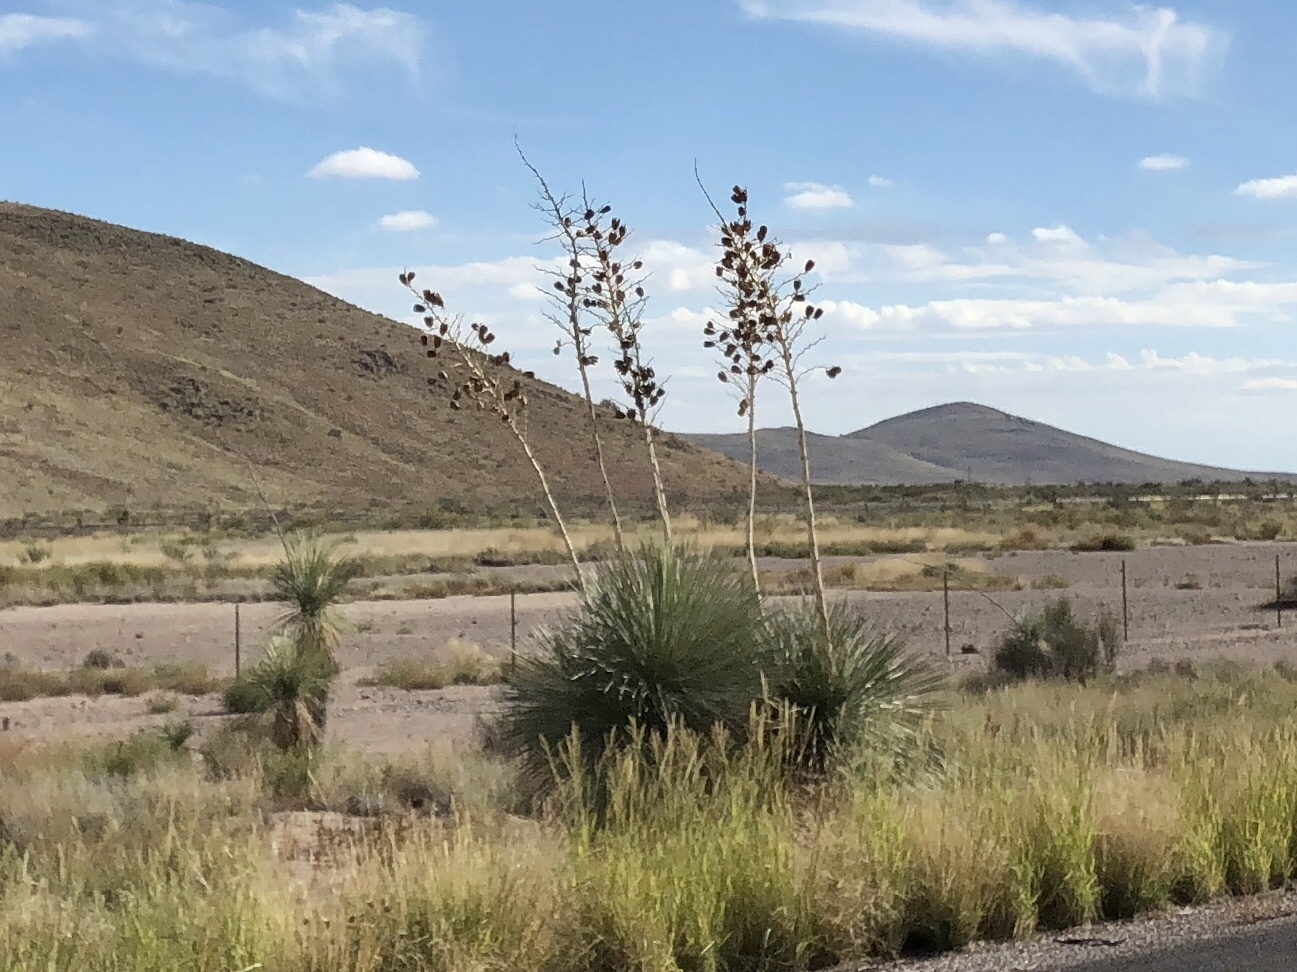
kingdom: Plantae
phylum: Tracheophyta
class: Liliopsida
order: Asparagales
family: Asparagaceae
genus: Yucca
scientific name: Yucca elata
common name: Palmella
